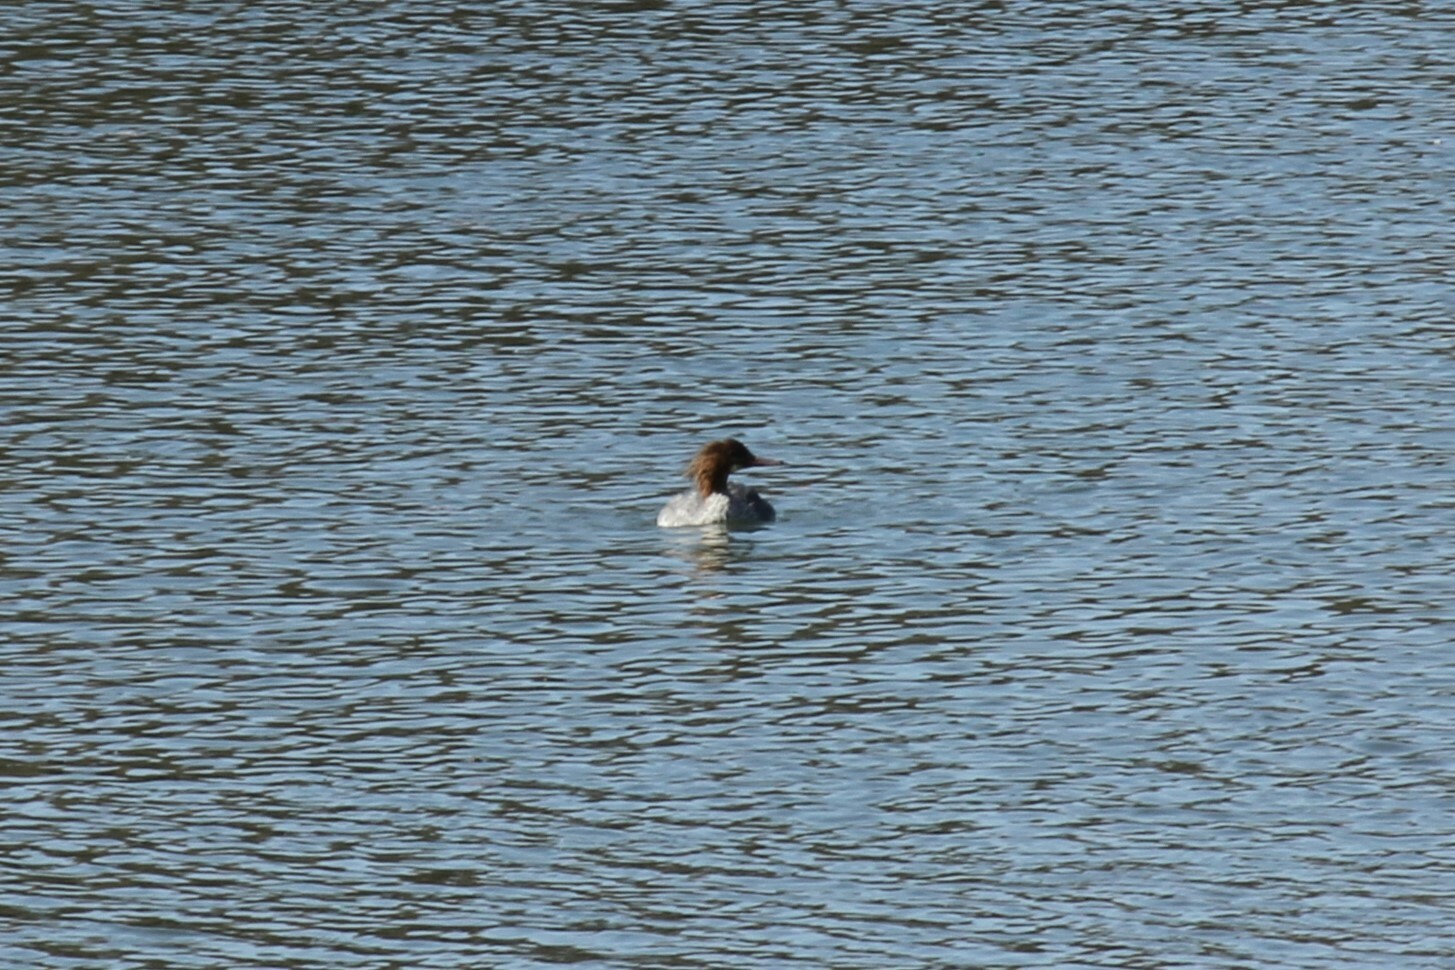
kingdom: Animalia
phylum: Chordata
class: Aves
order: Anseriformes
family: Anatidae
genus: Mergus
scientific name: Mergus merganser
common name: Common merganser
